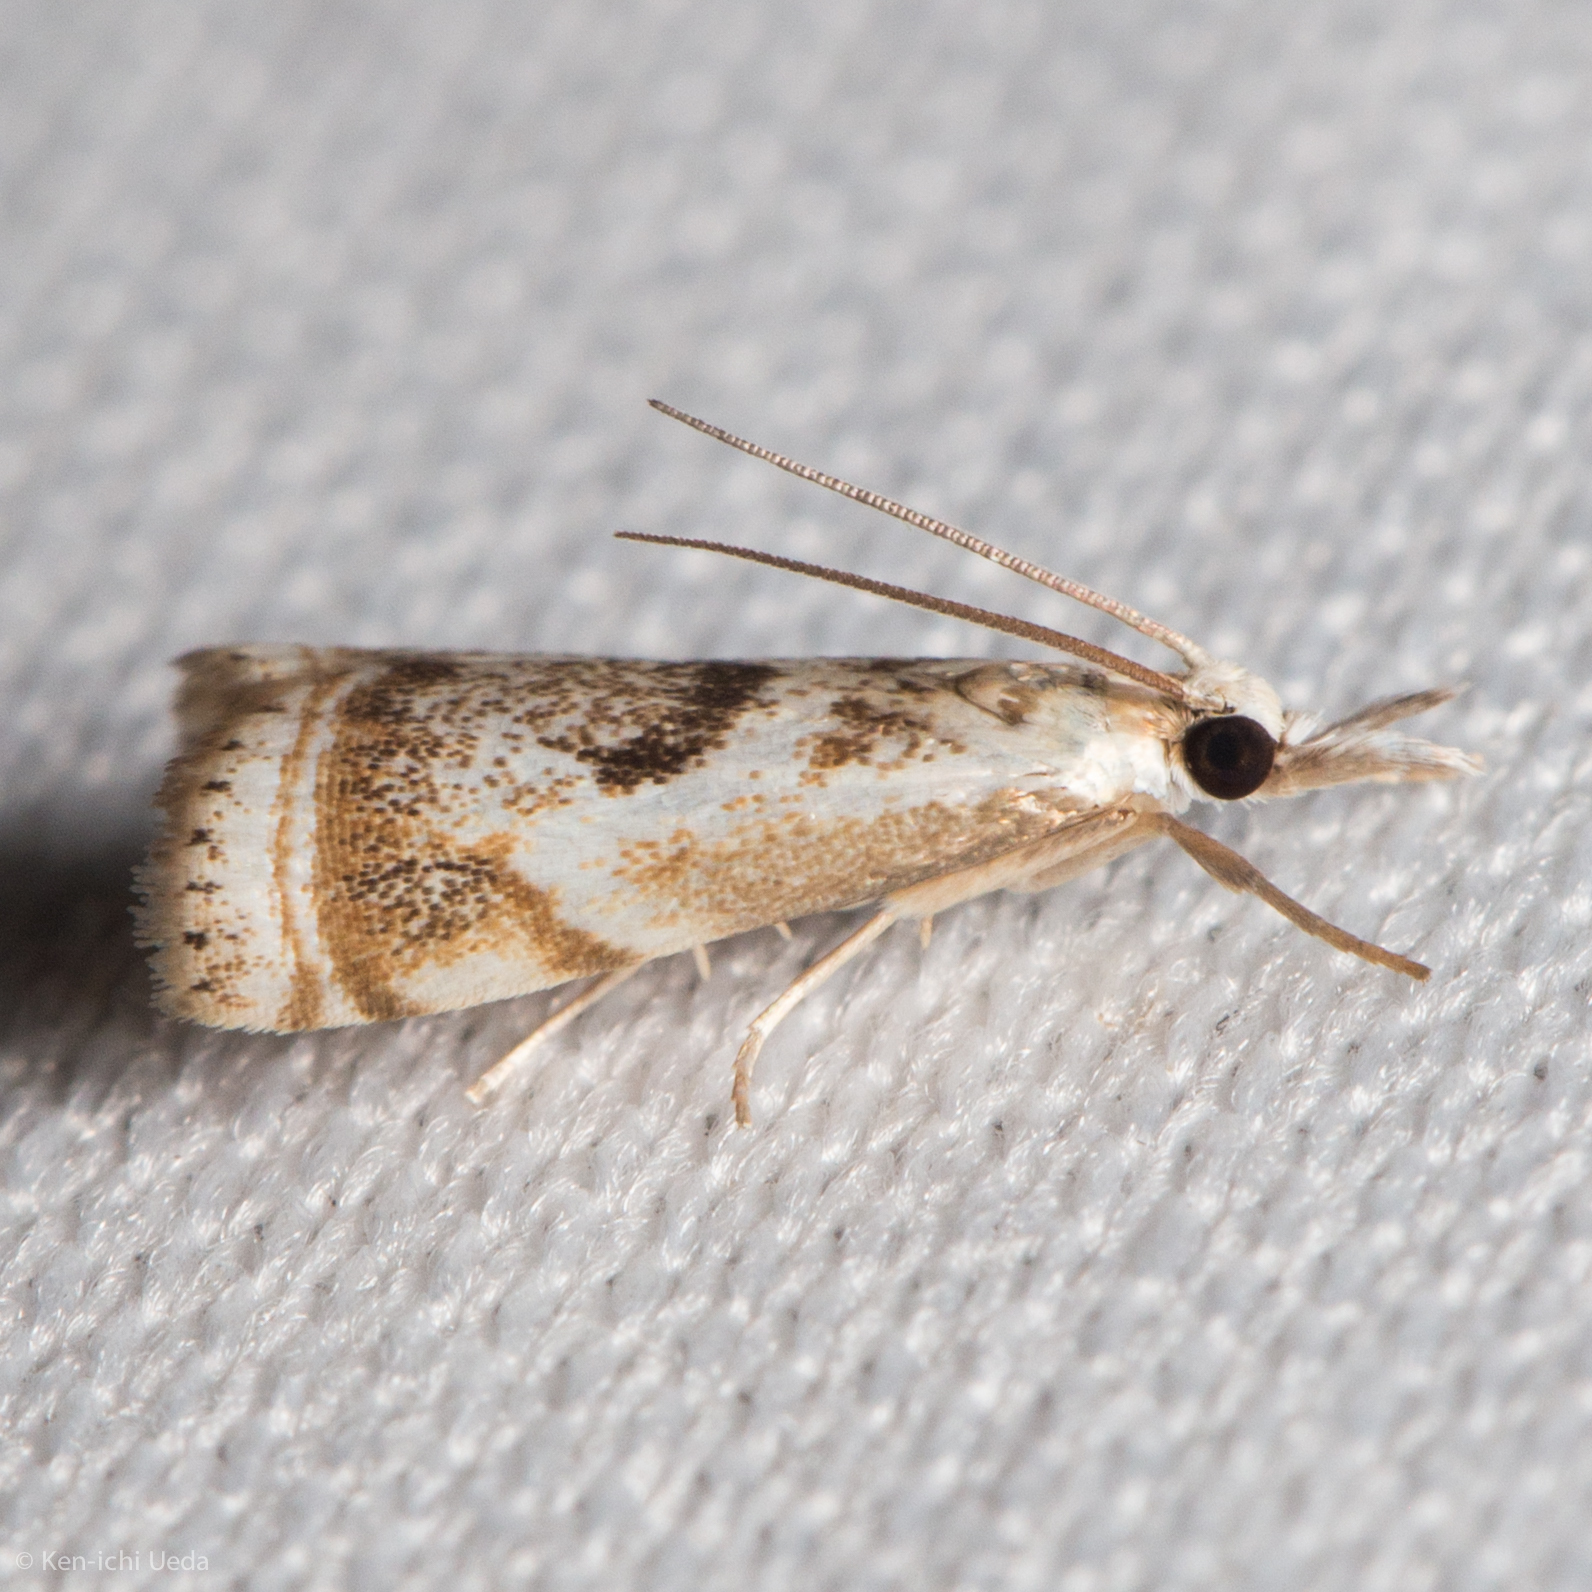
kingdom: Animalia
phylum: Arthropoda
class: Insecta
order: Lepidoptera
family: Crambidae
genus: Microcrambus
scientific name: Microcrambus elegans
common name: Elegant grass-veneer
